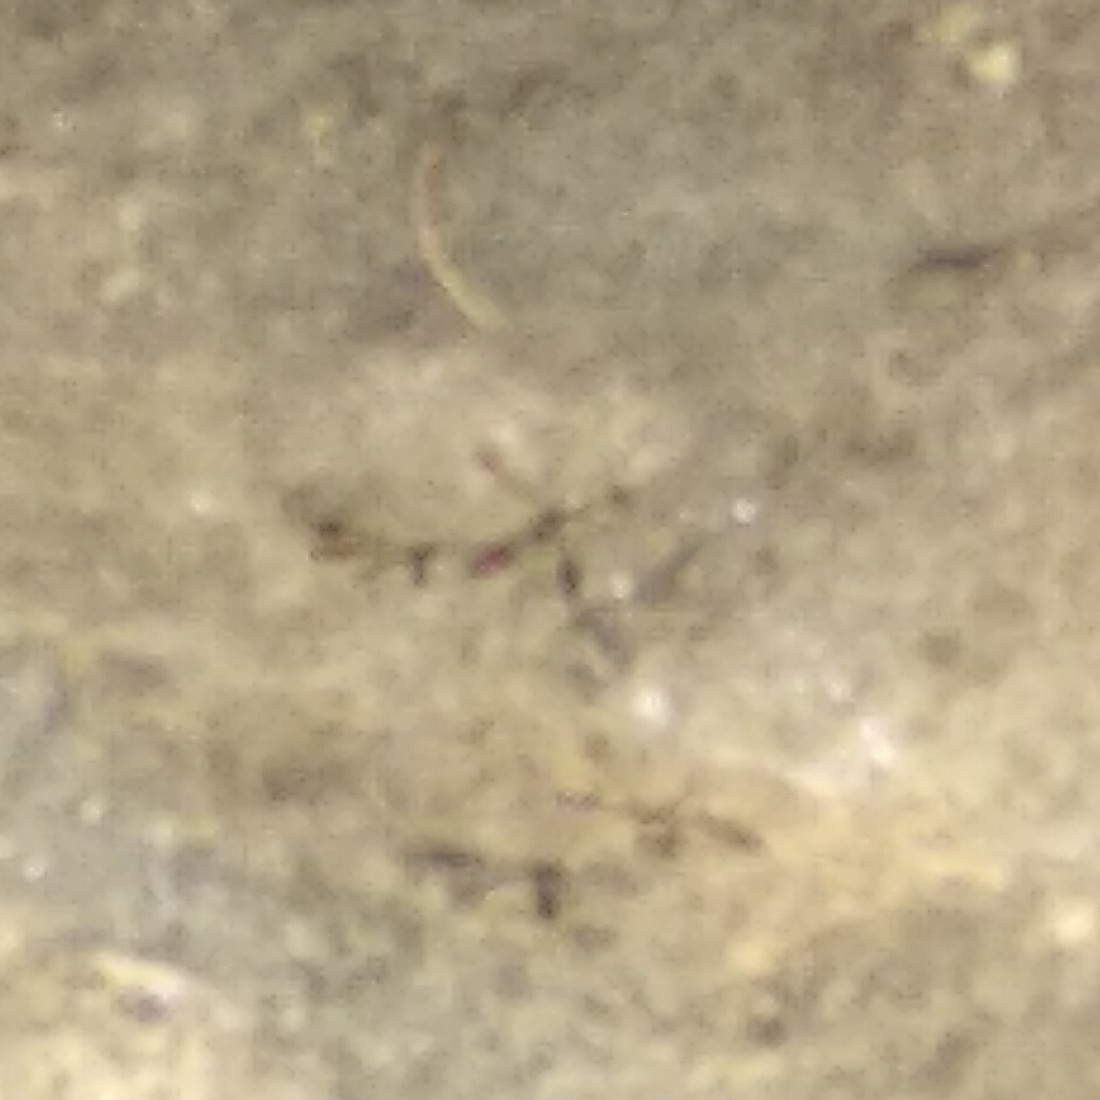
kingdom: Animalia
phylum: Arthropoda
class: Insecta
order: Odonata
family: Chlorocyphidae
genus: Heliocypha
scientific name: Heliocypha bisignata
